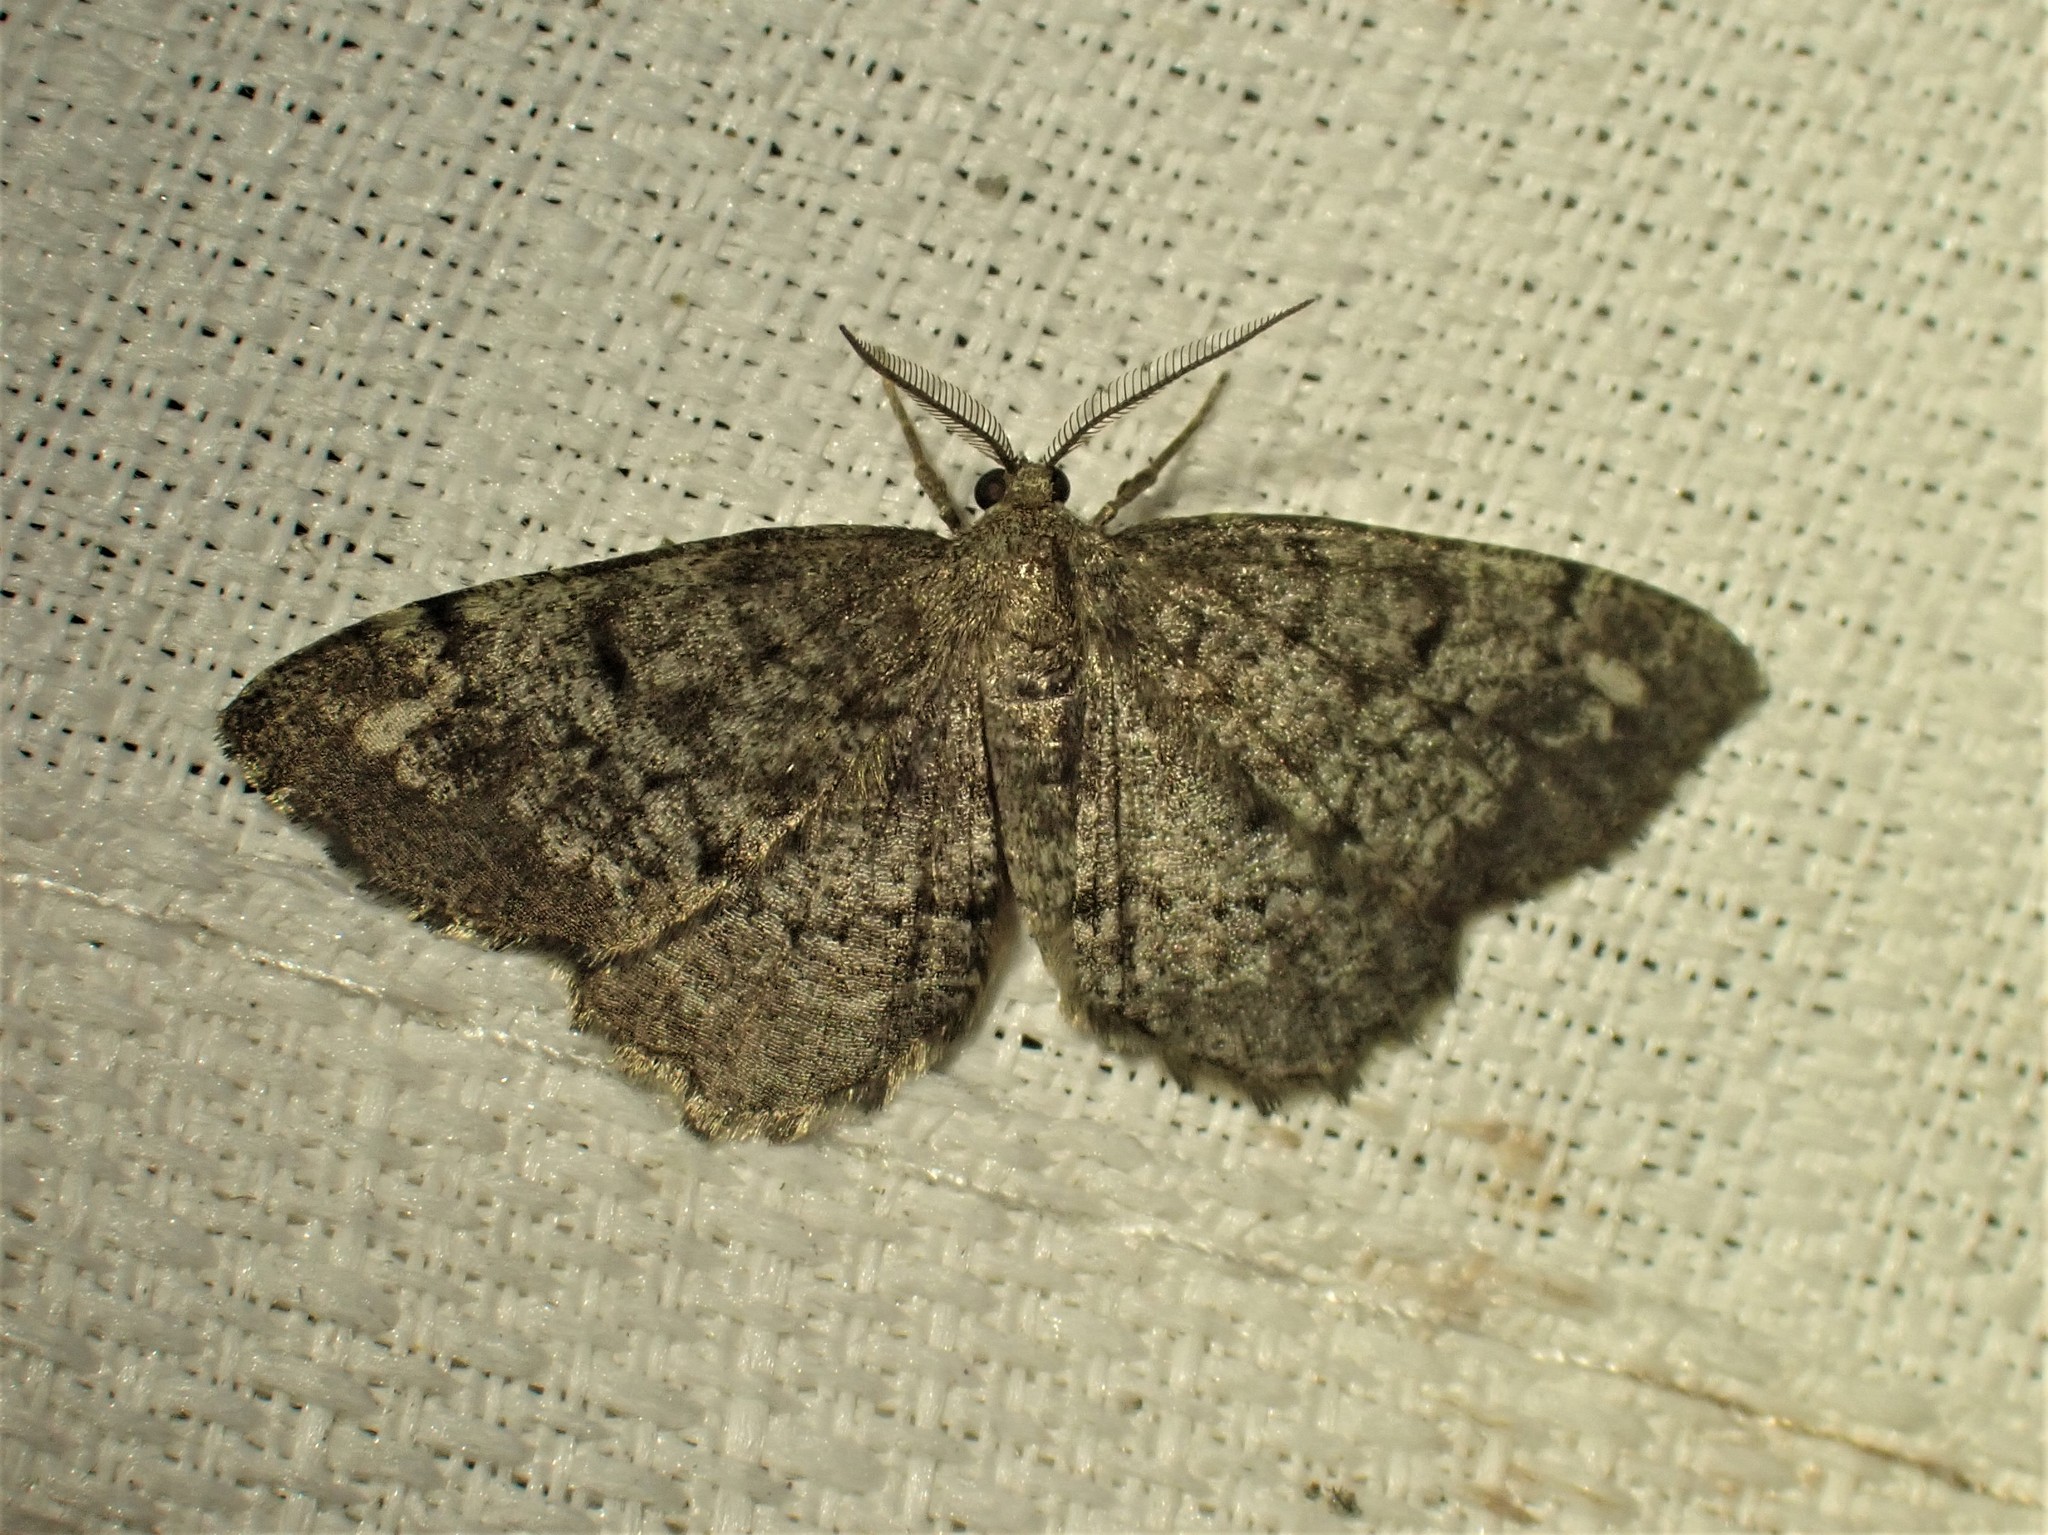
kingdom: Animalia
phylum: Arthropoda
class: Insecta
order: Lepidoptera
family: Geometridae
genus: Hypagyrtis
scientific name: Hypagyrtis piniata
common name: Pine measuringworm
